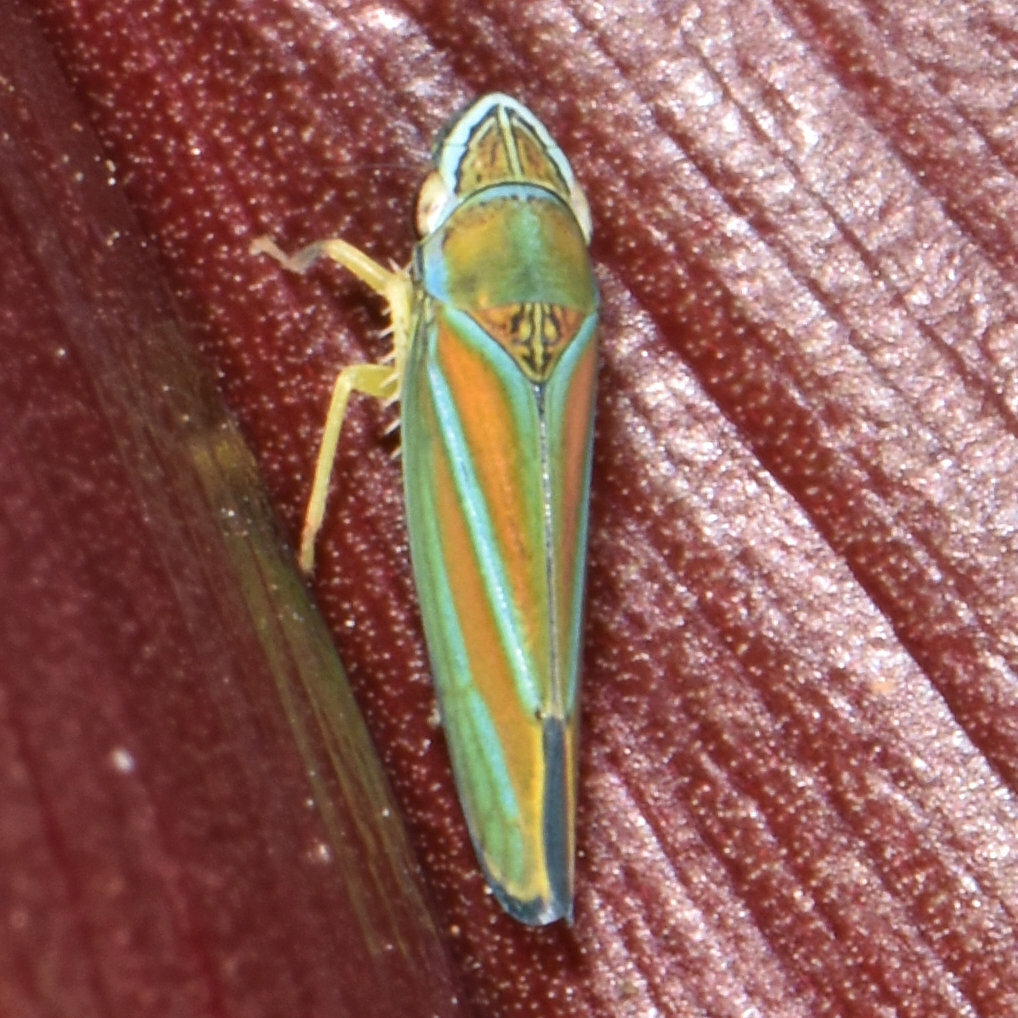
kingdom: Animalia
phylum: Arthropoda
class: Insecta
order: Hemiptera
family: Cicadellidae
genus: Graphocephala
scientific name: Graphocephala versuta
